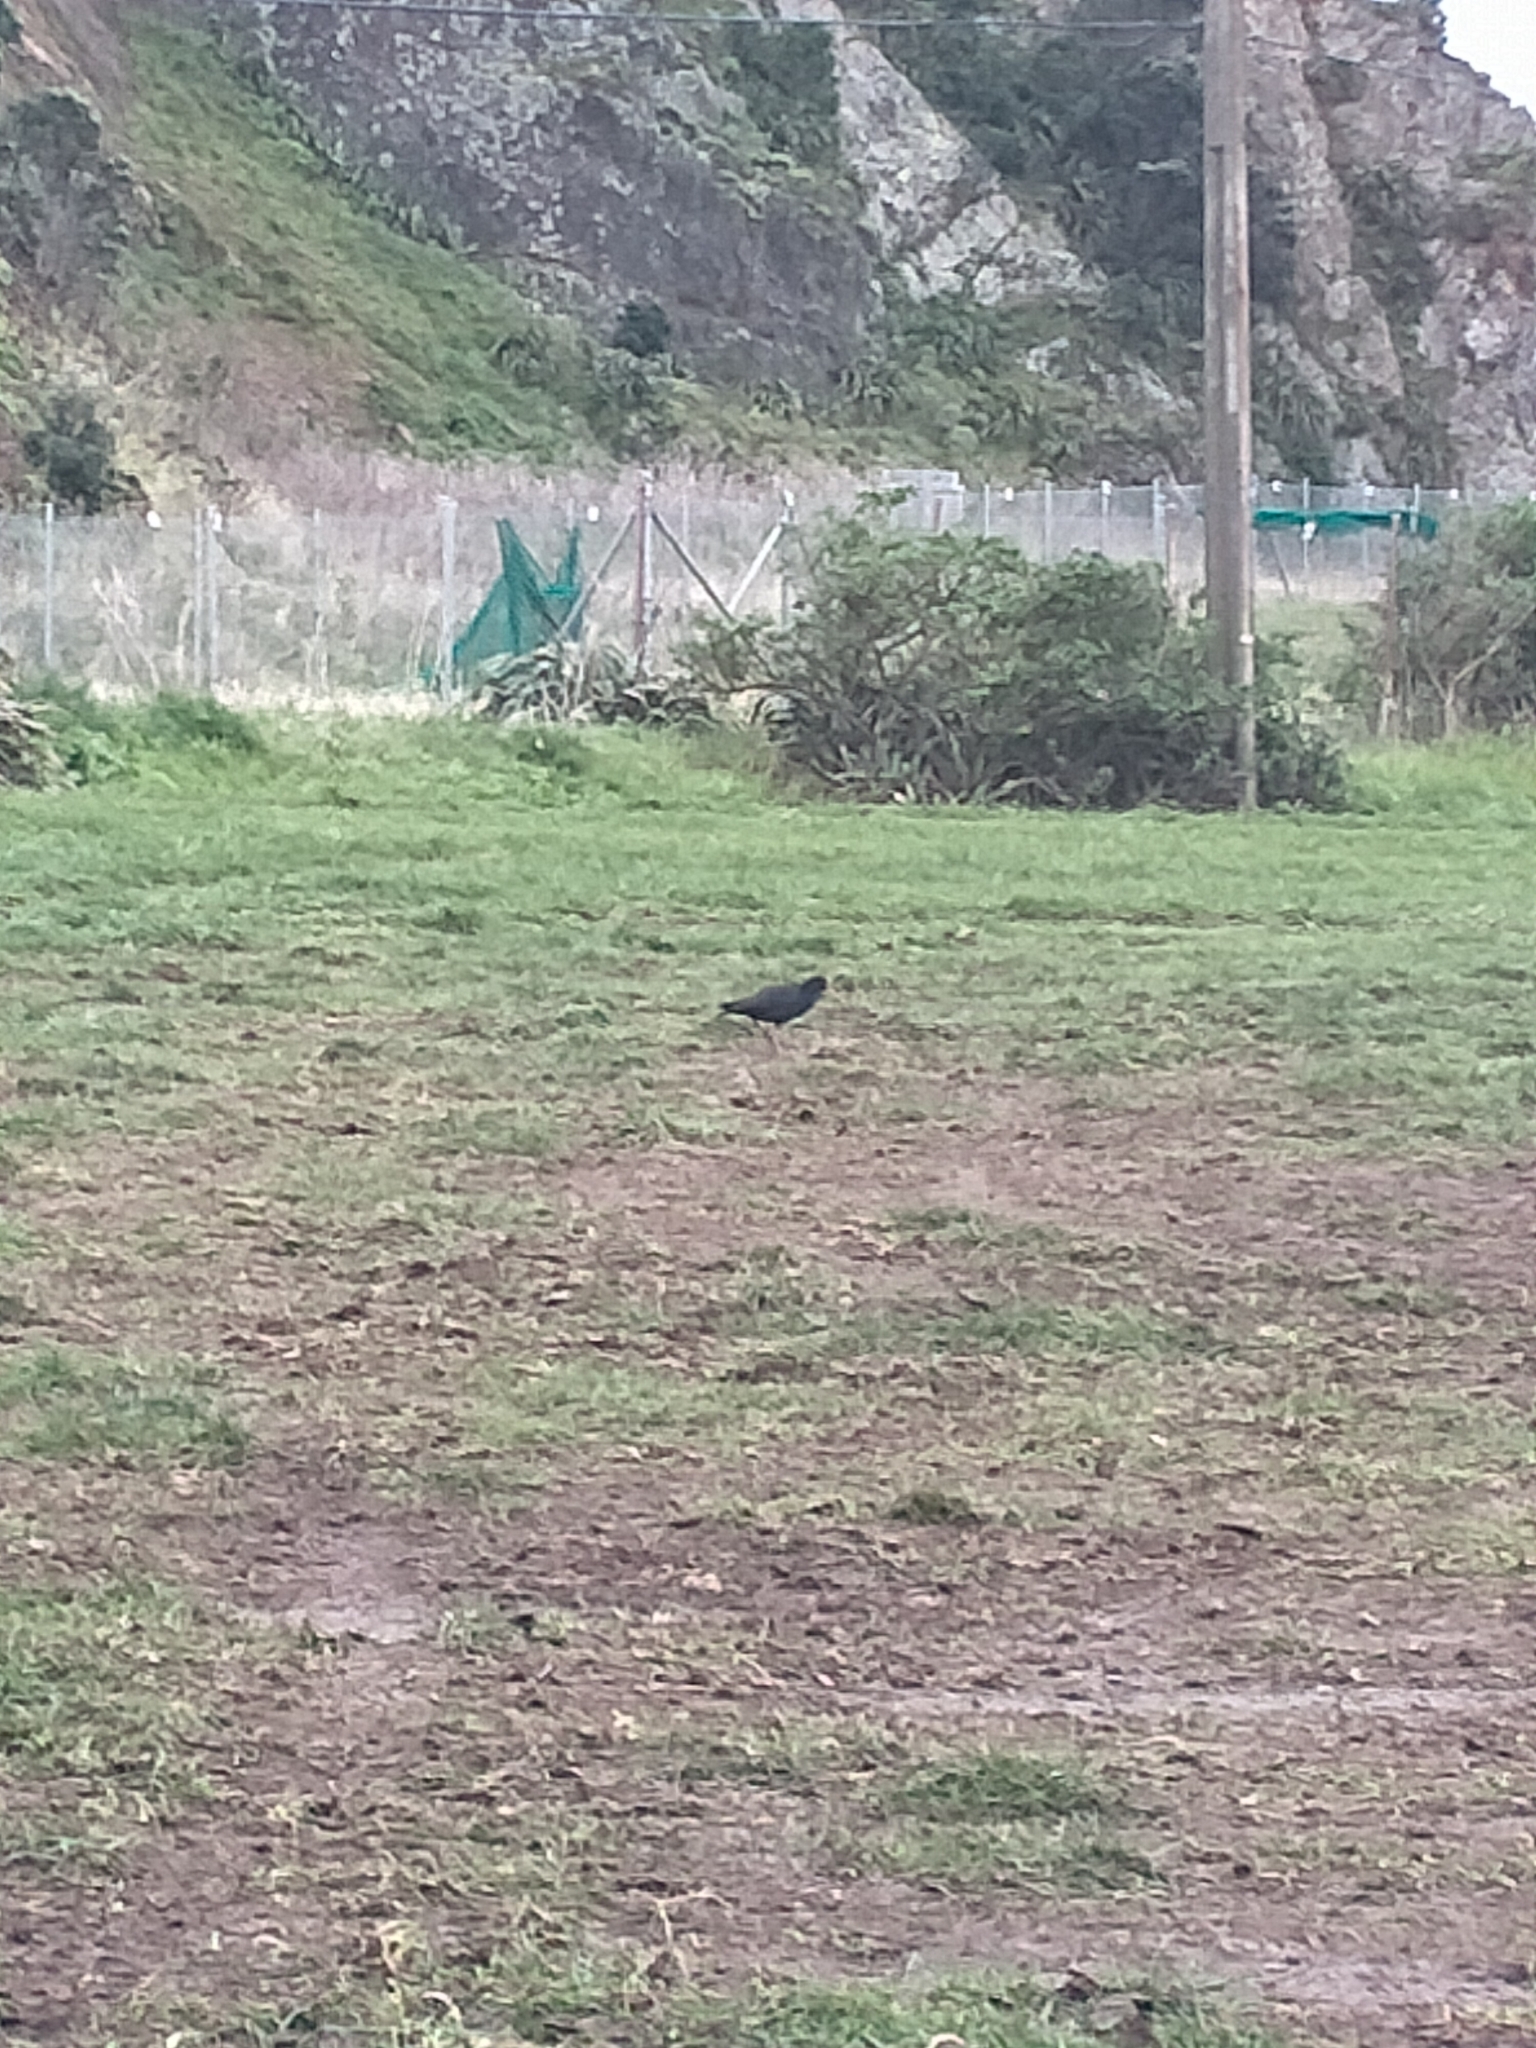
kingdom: Animalia
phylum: Chordata
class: Aves
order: Charadriiformes
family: Haematopodidae
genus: Haematopus
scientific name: Haematopus unicolor
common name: Variable oystercatcher
